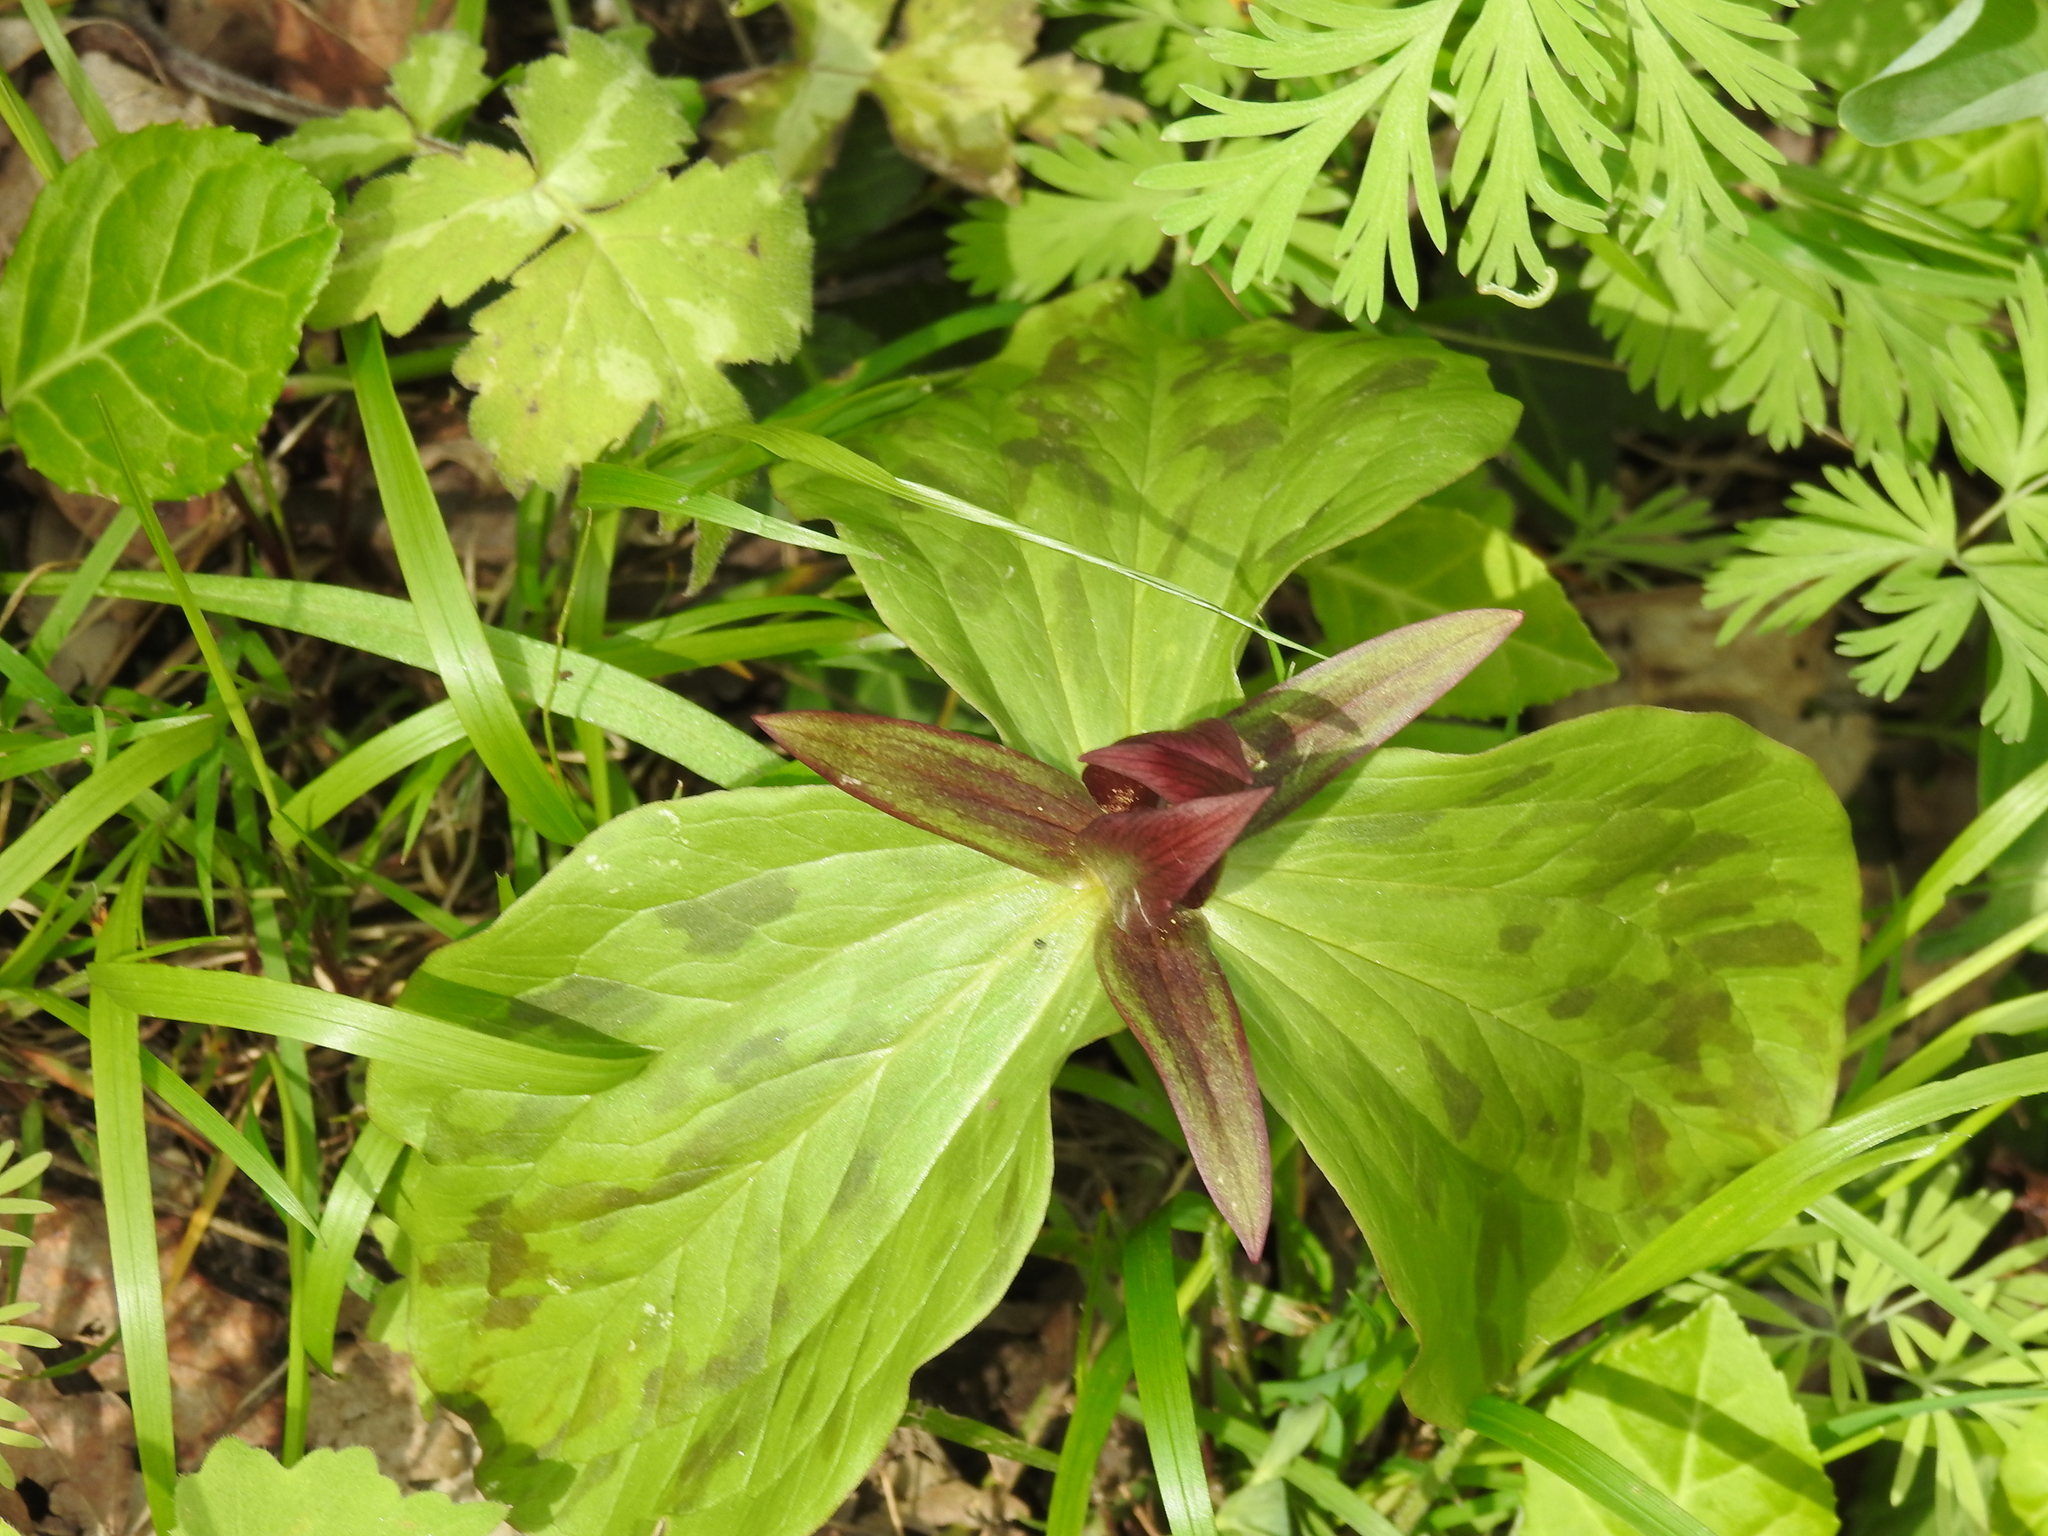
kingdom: Plantae
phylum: Tracheophyta
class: Liliopsida
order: Liliales
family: Melanthiaceae
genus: Trillium
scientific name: Trillium sessile
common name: Sessile trillium
